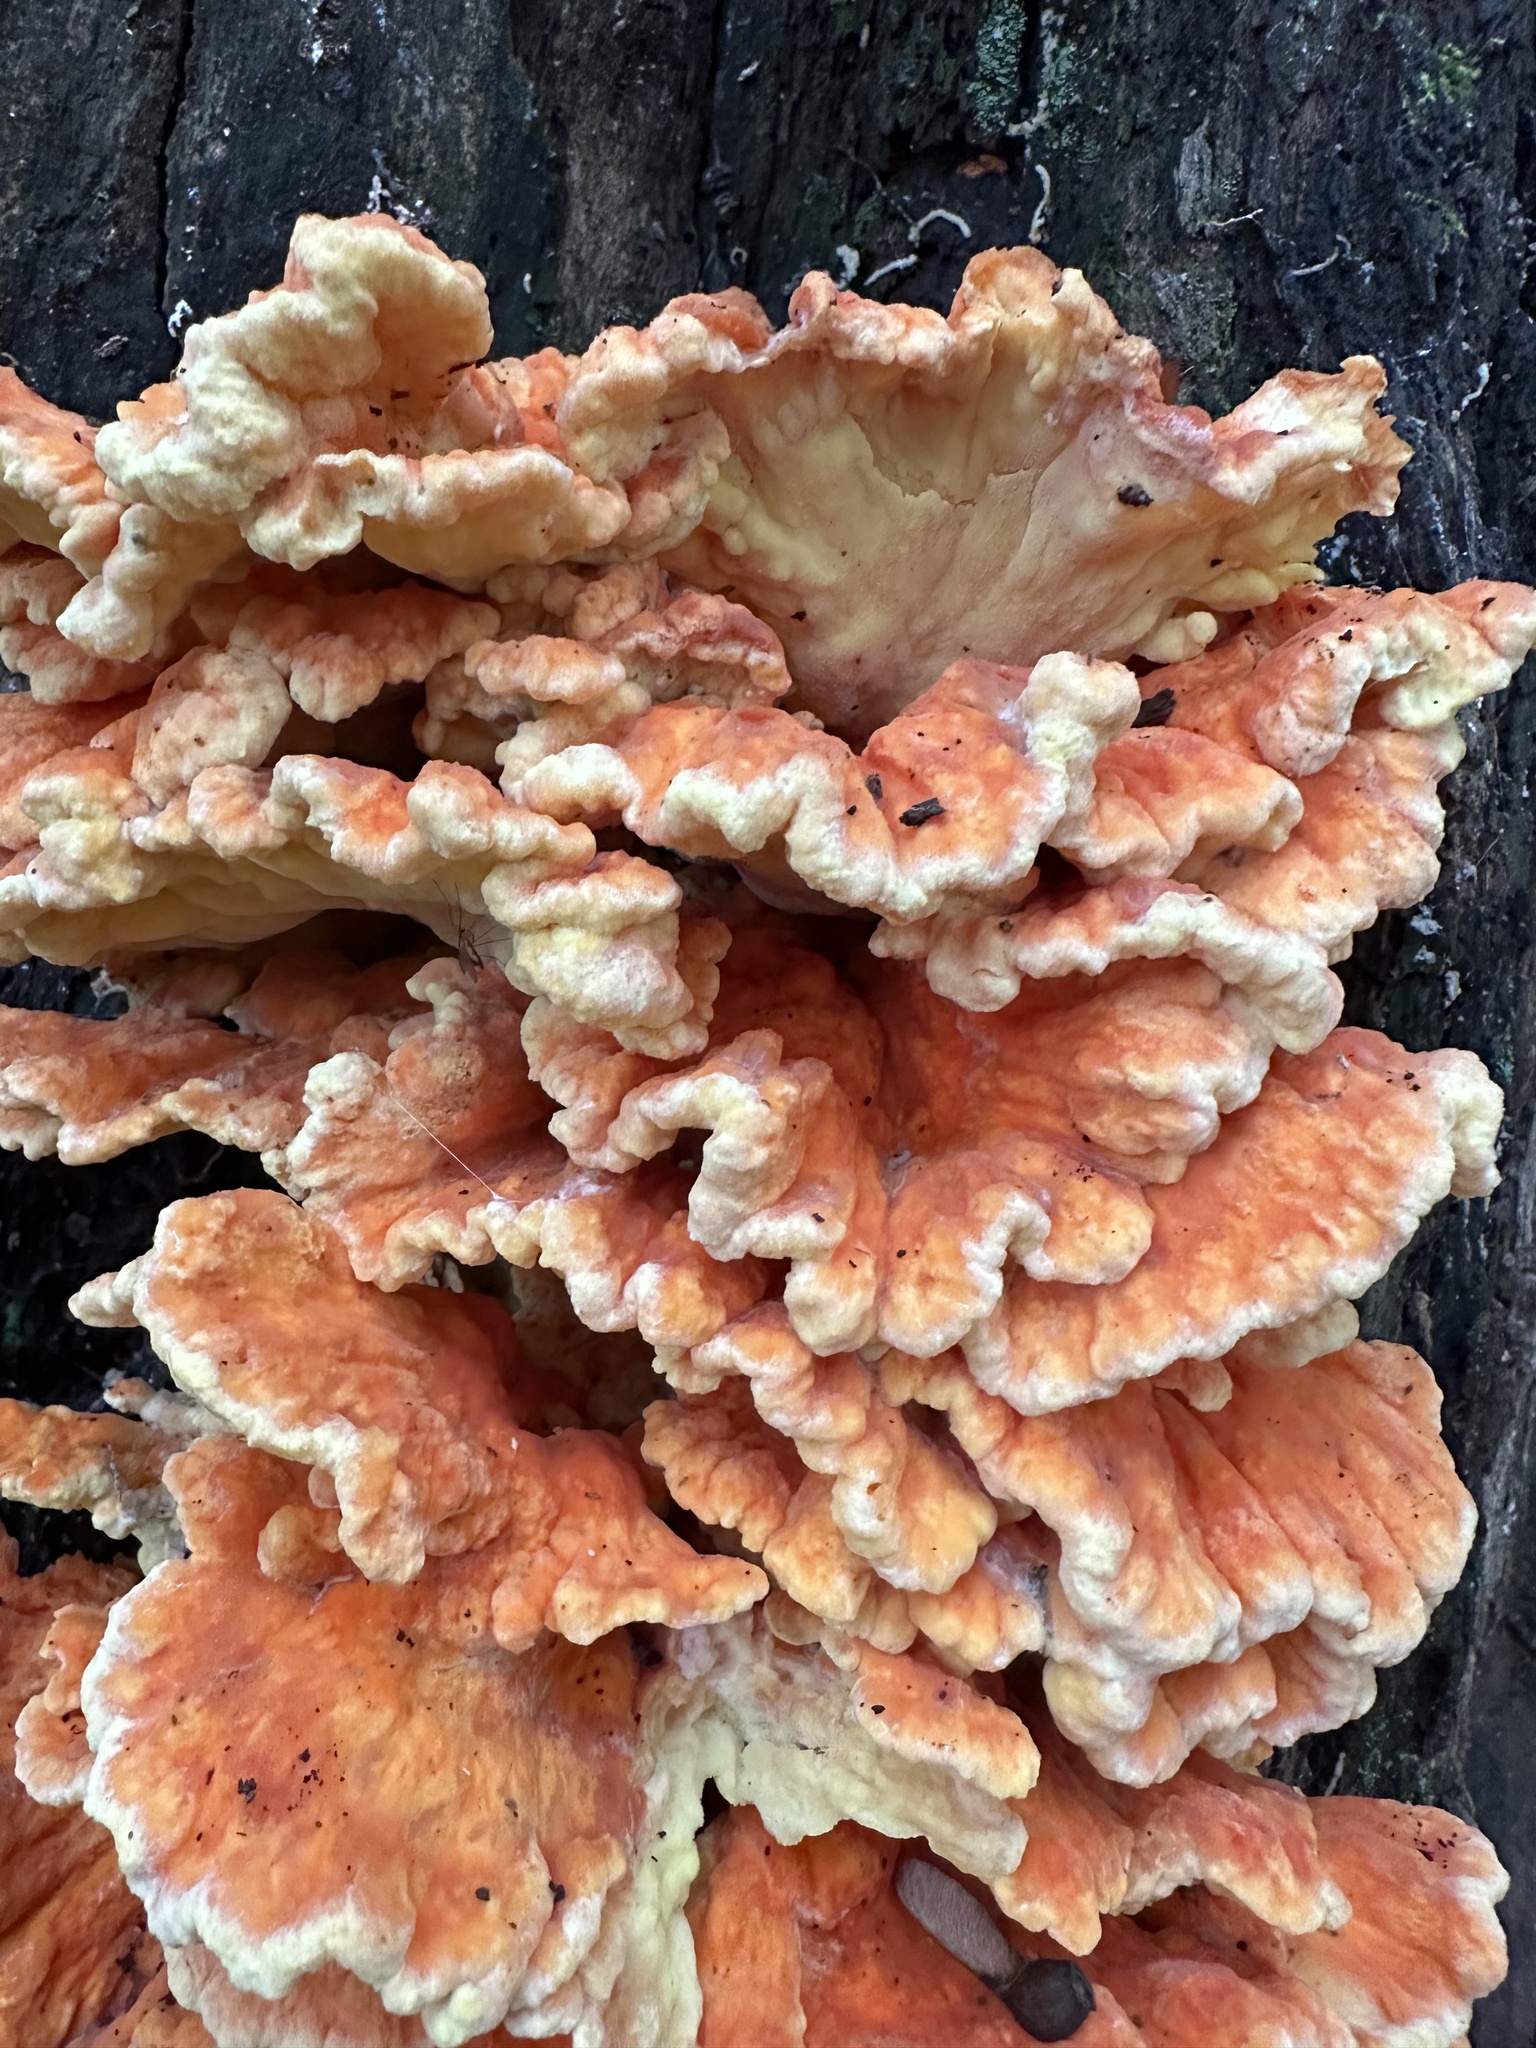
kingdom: Fungi
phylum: Basidiomycota
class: Agaricomycetes
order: Polyporales
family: Laetiporaceae
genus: Laetiporus
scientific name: Laetiporus sulphureus
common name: Chicken of the woods
